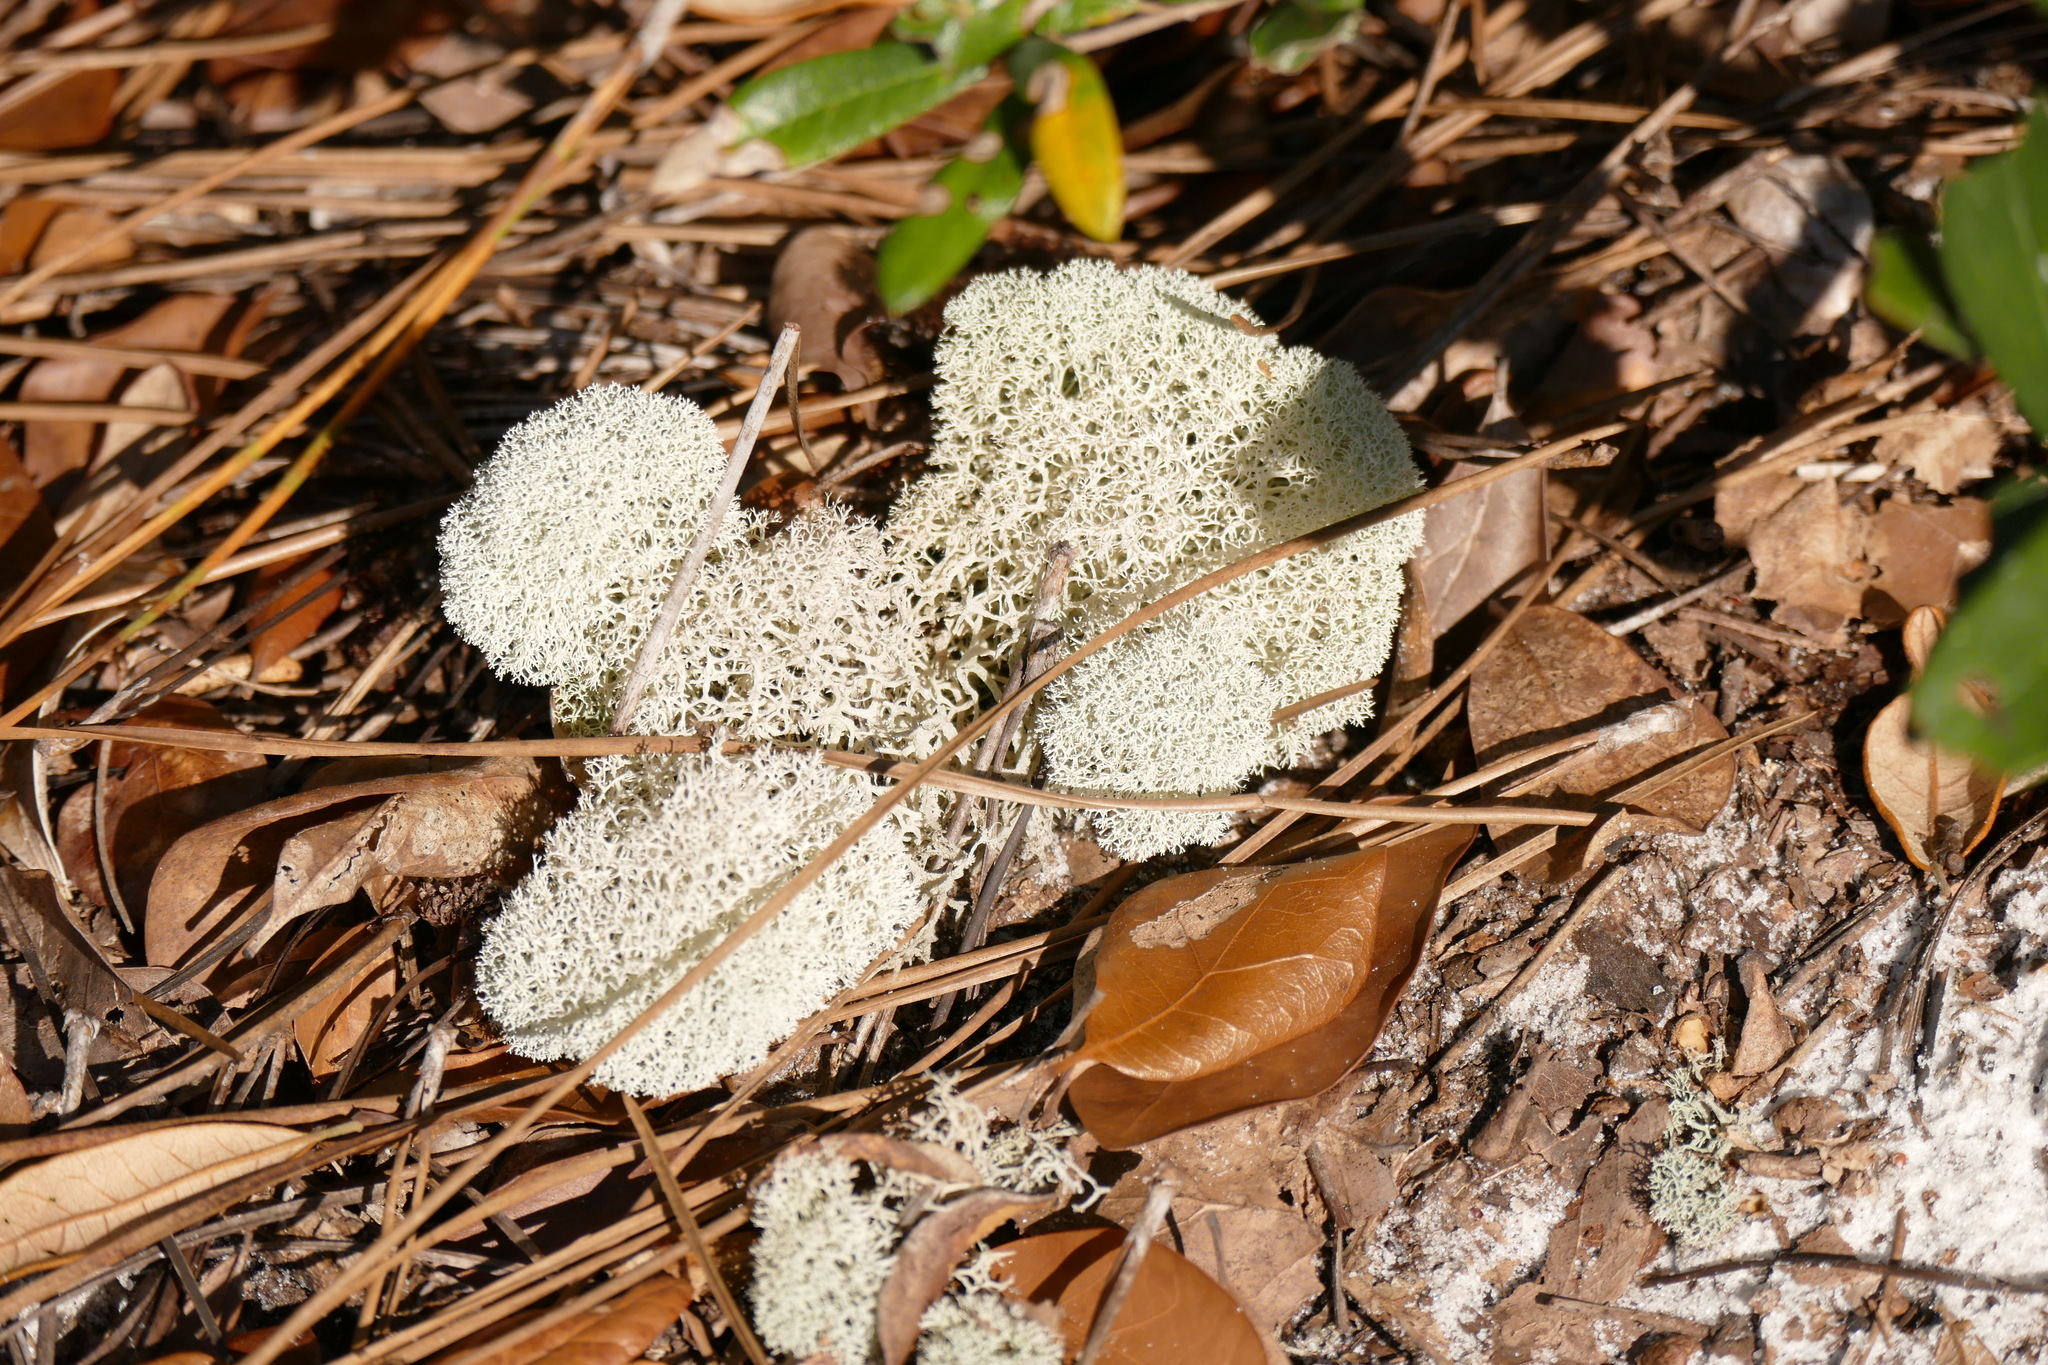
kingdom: Fungi
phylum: Ascomycota
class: Lecanoromycetes
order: Lecanorales
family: Cladoniaceae
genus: Cladonia
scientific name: Cladonia evansii
